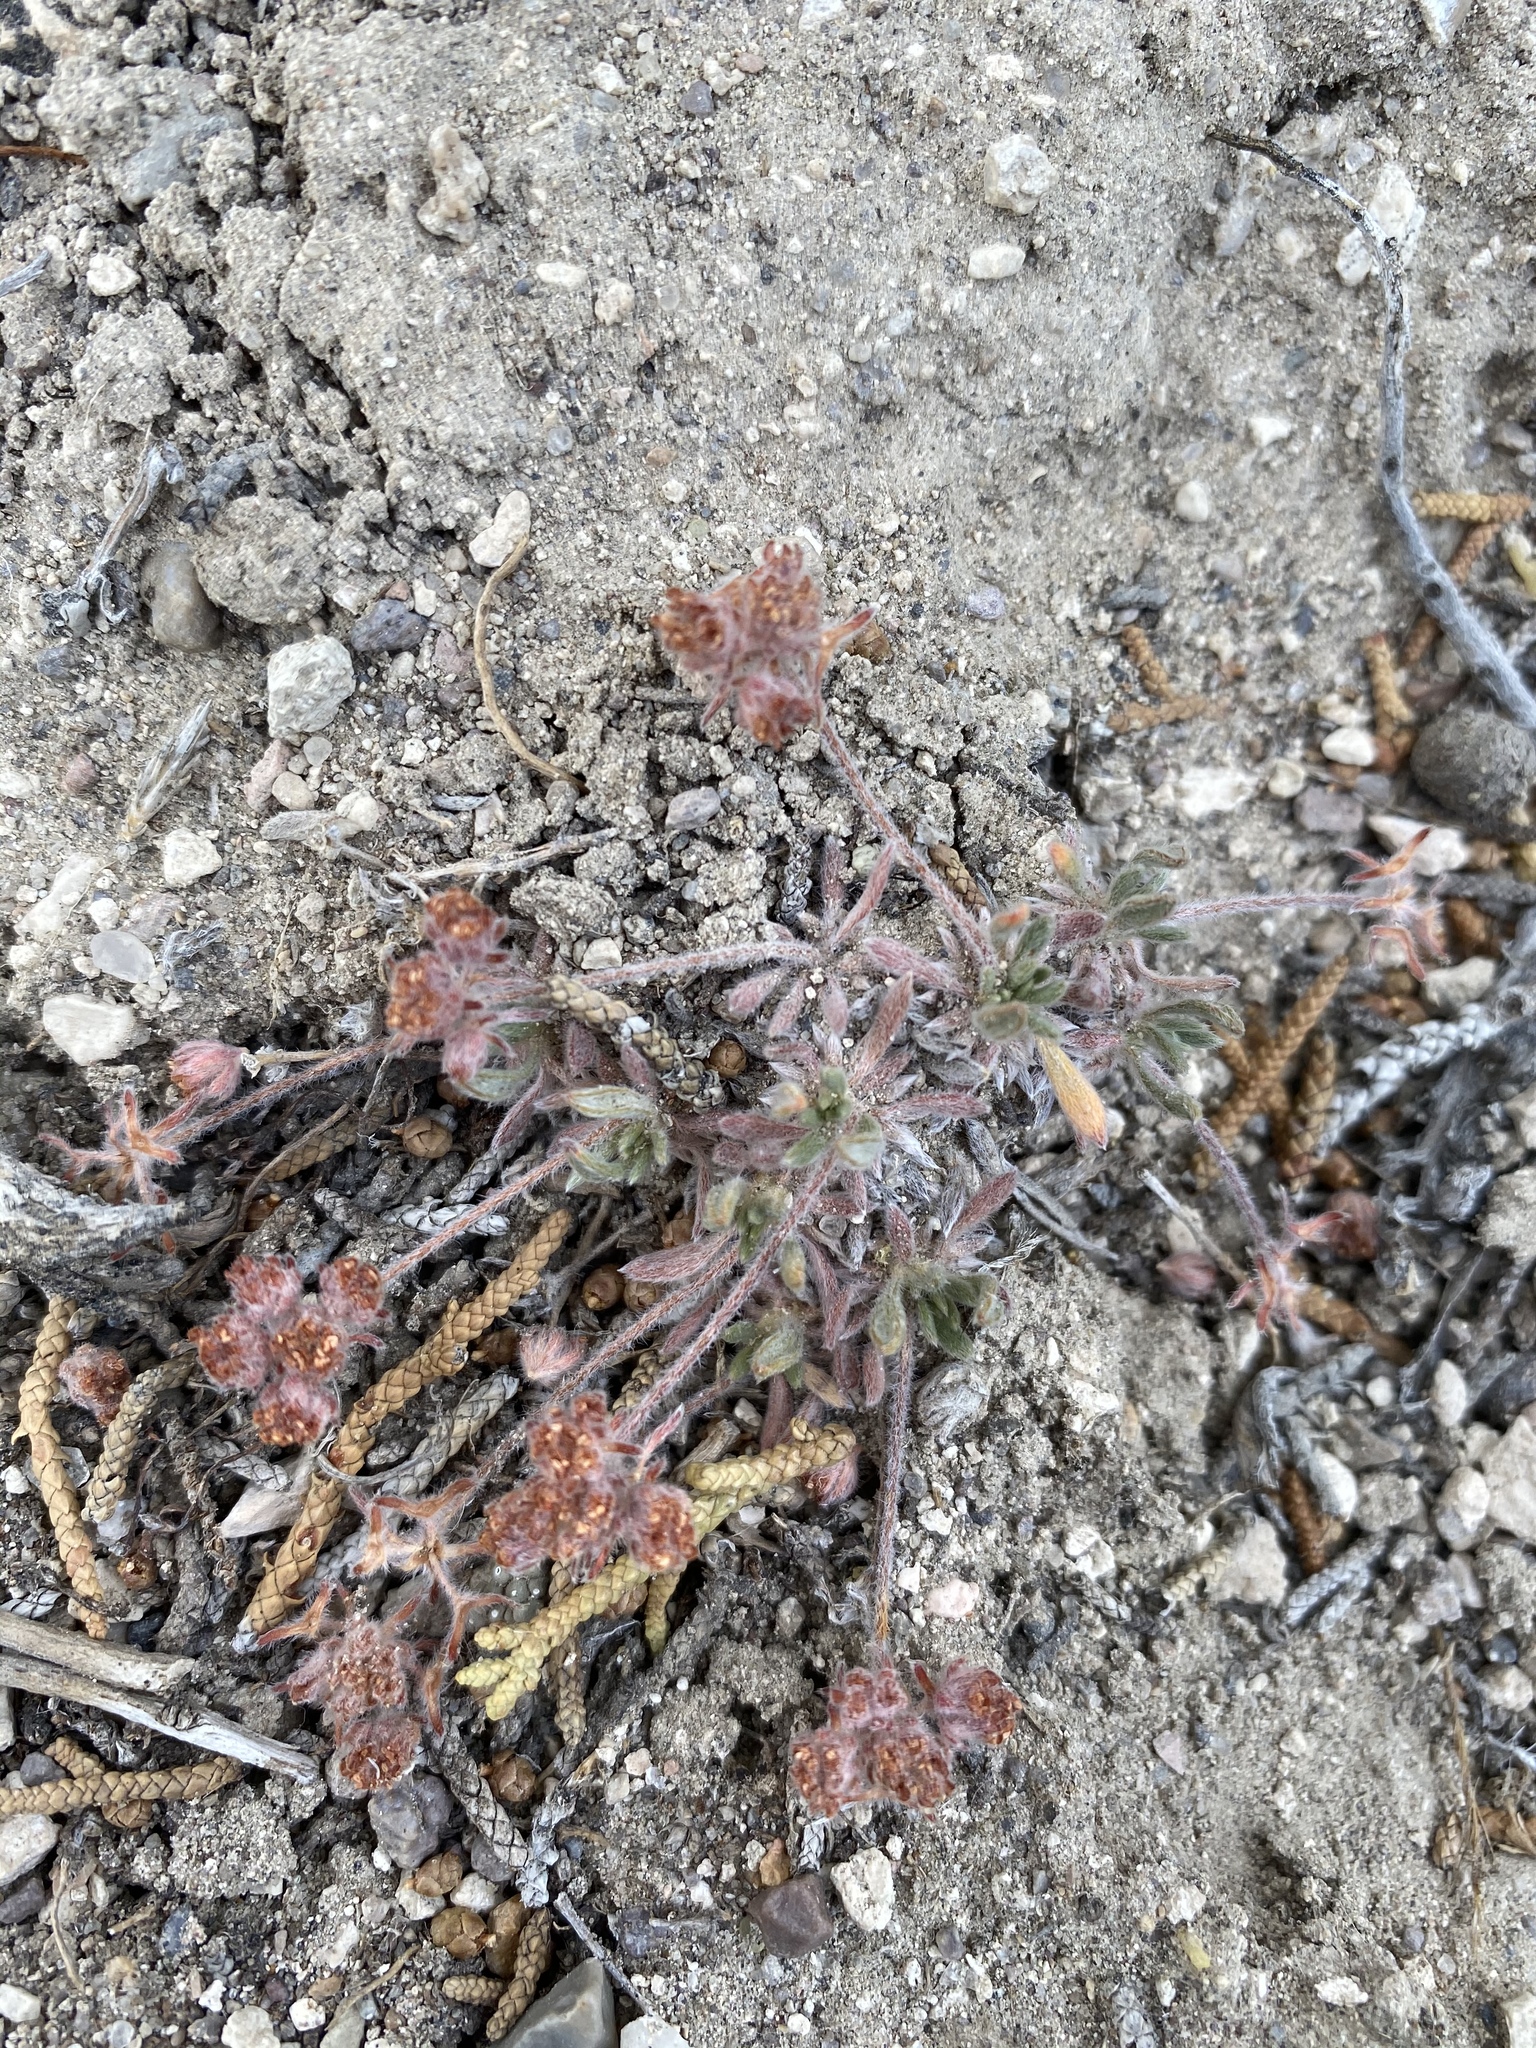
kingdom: Plantae
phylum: Tracheophyta
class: Magnoliopsida
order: Caryophyllales
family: Polygonaceae
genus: Eriogonum
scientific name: Eriogonum villiflorum
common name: Gray's wild buckwheat
